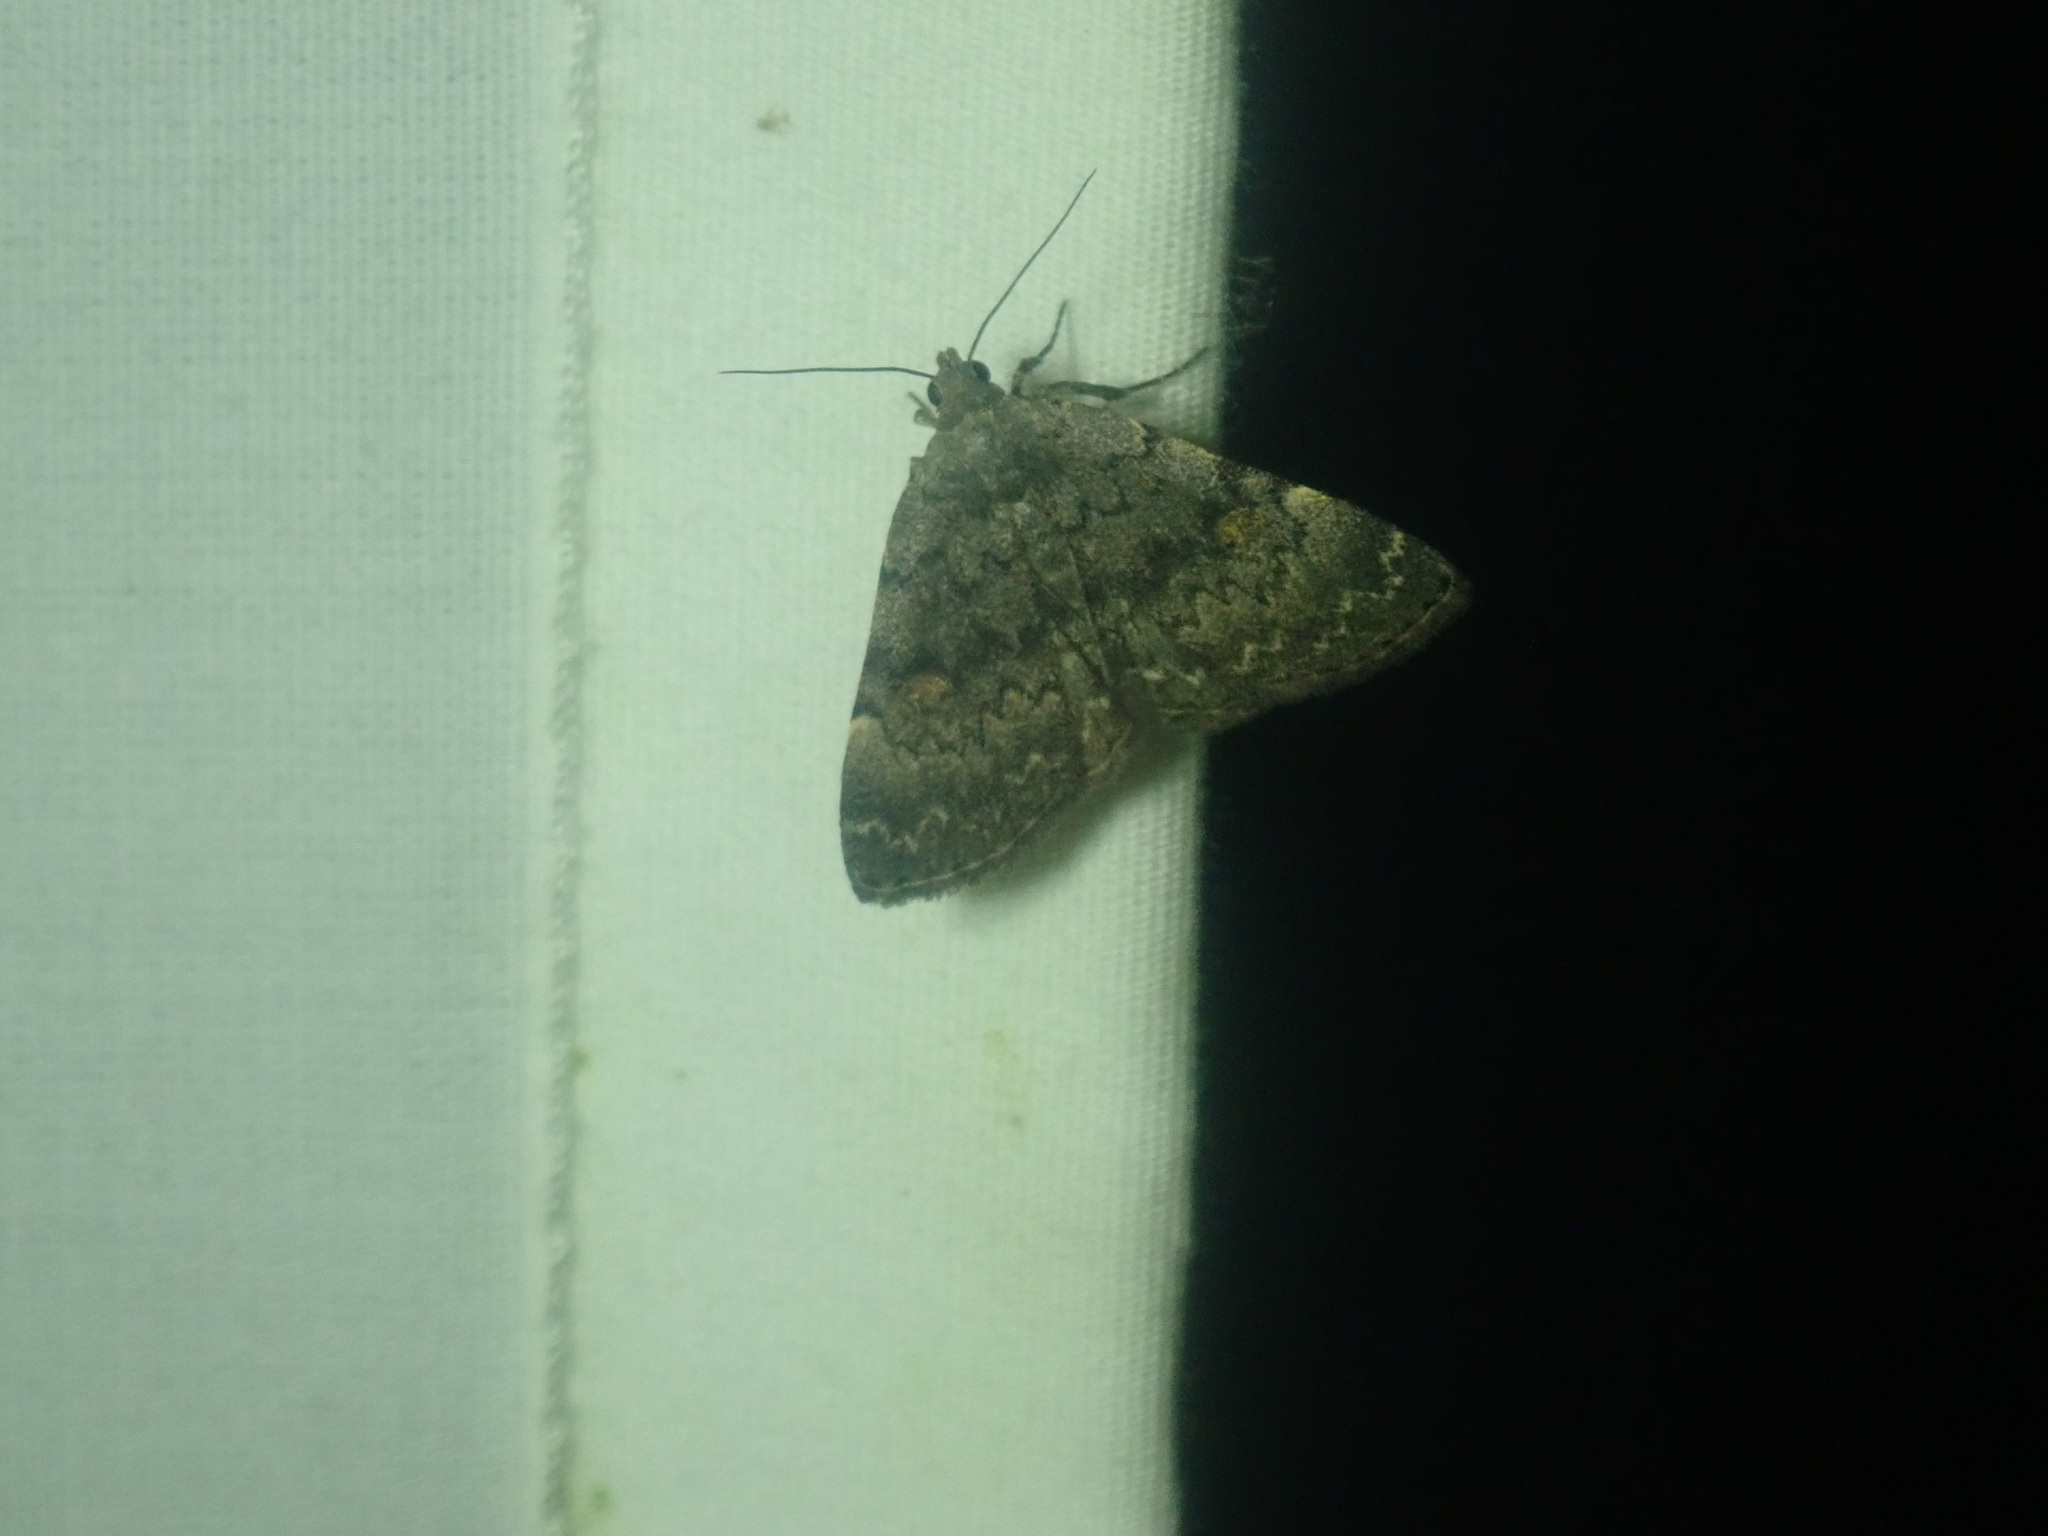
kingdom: Animalia
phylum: Arthropoda
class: Insecta
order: Lepidoptera
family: Erebidae
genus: Idia
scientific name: Idia aemula
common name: Common idia moth
